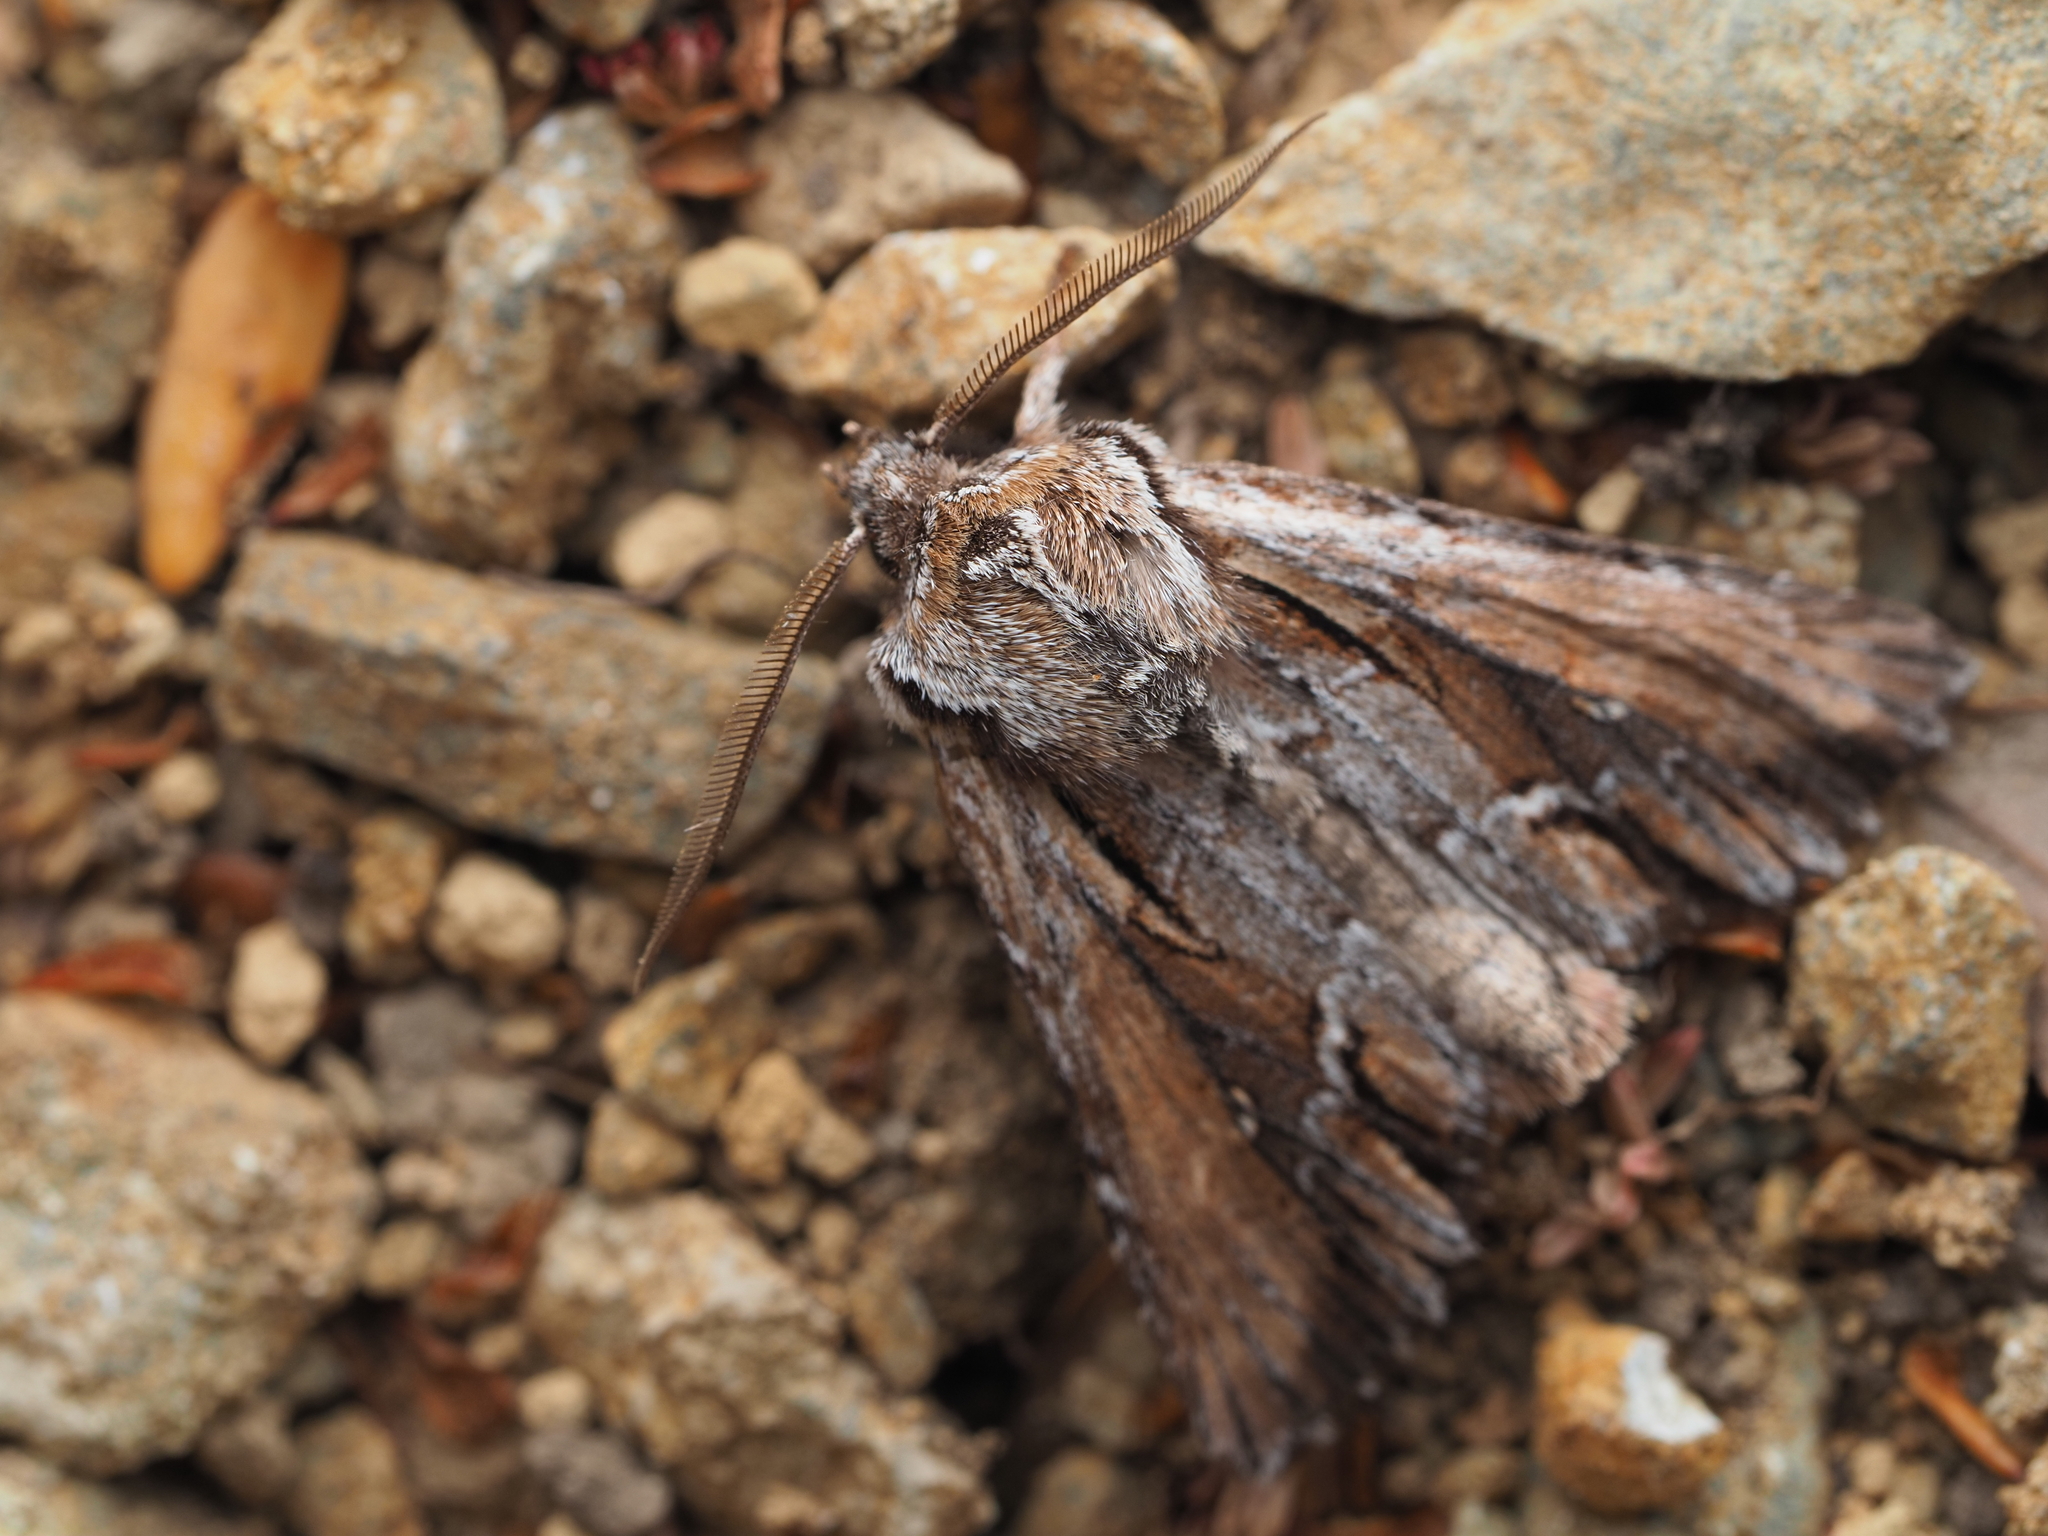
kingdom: Animalia
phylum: Arthropoda
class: Insecta
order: Lepidoptera
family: Noctuidae
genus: Ichneutica
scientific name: Ichneutica
